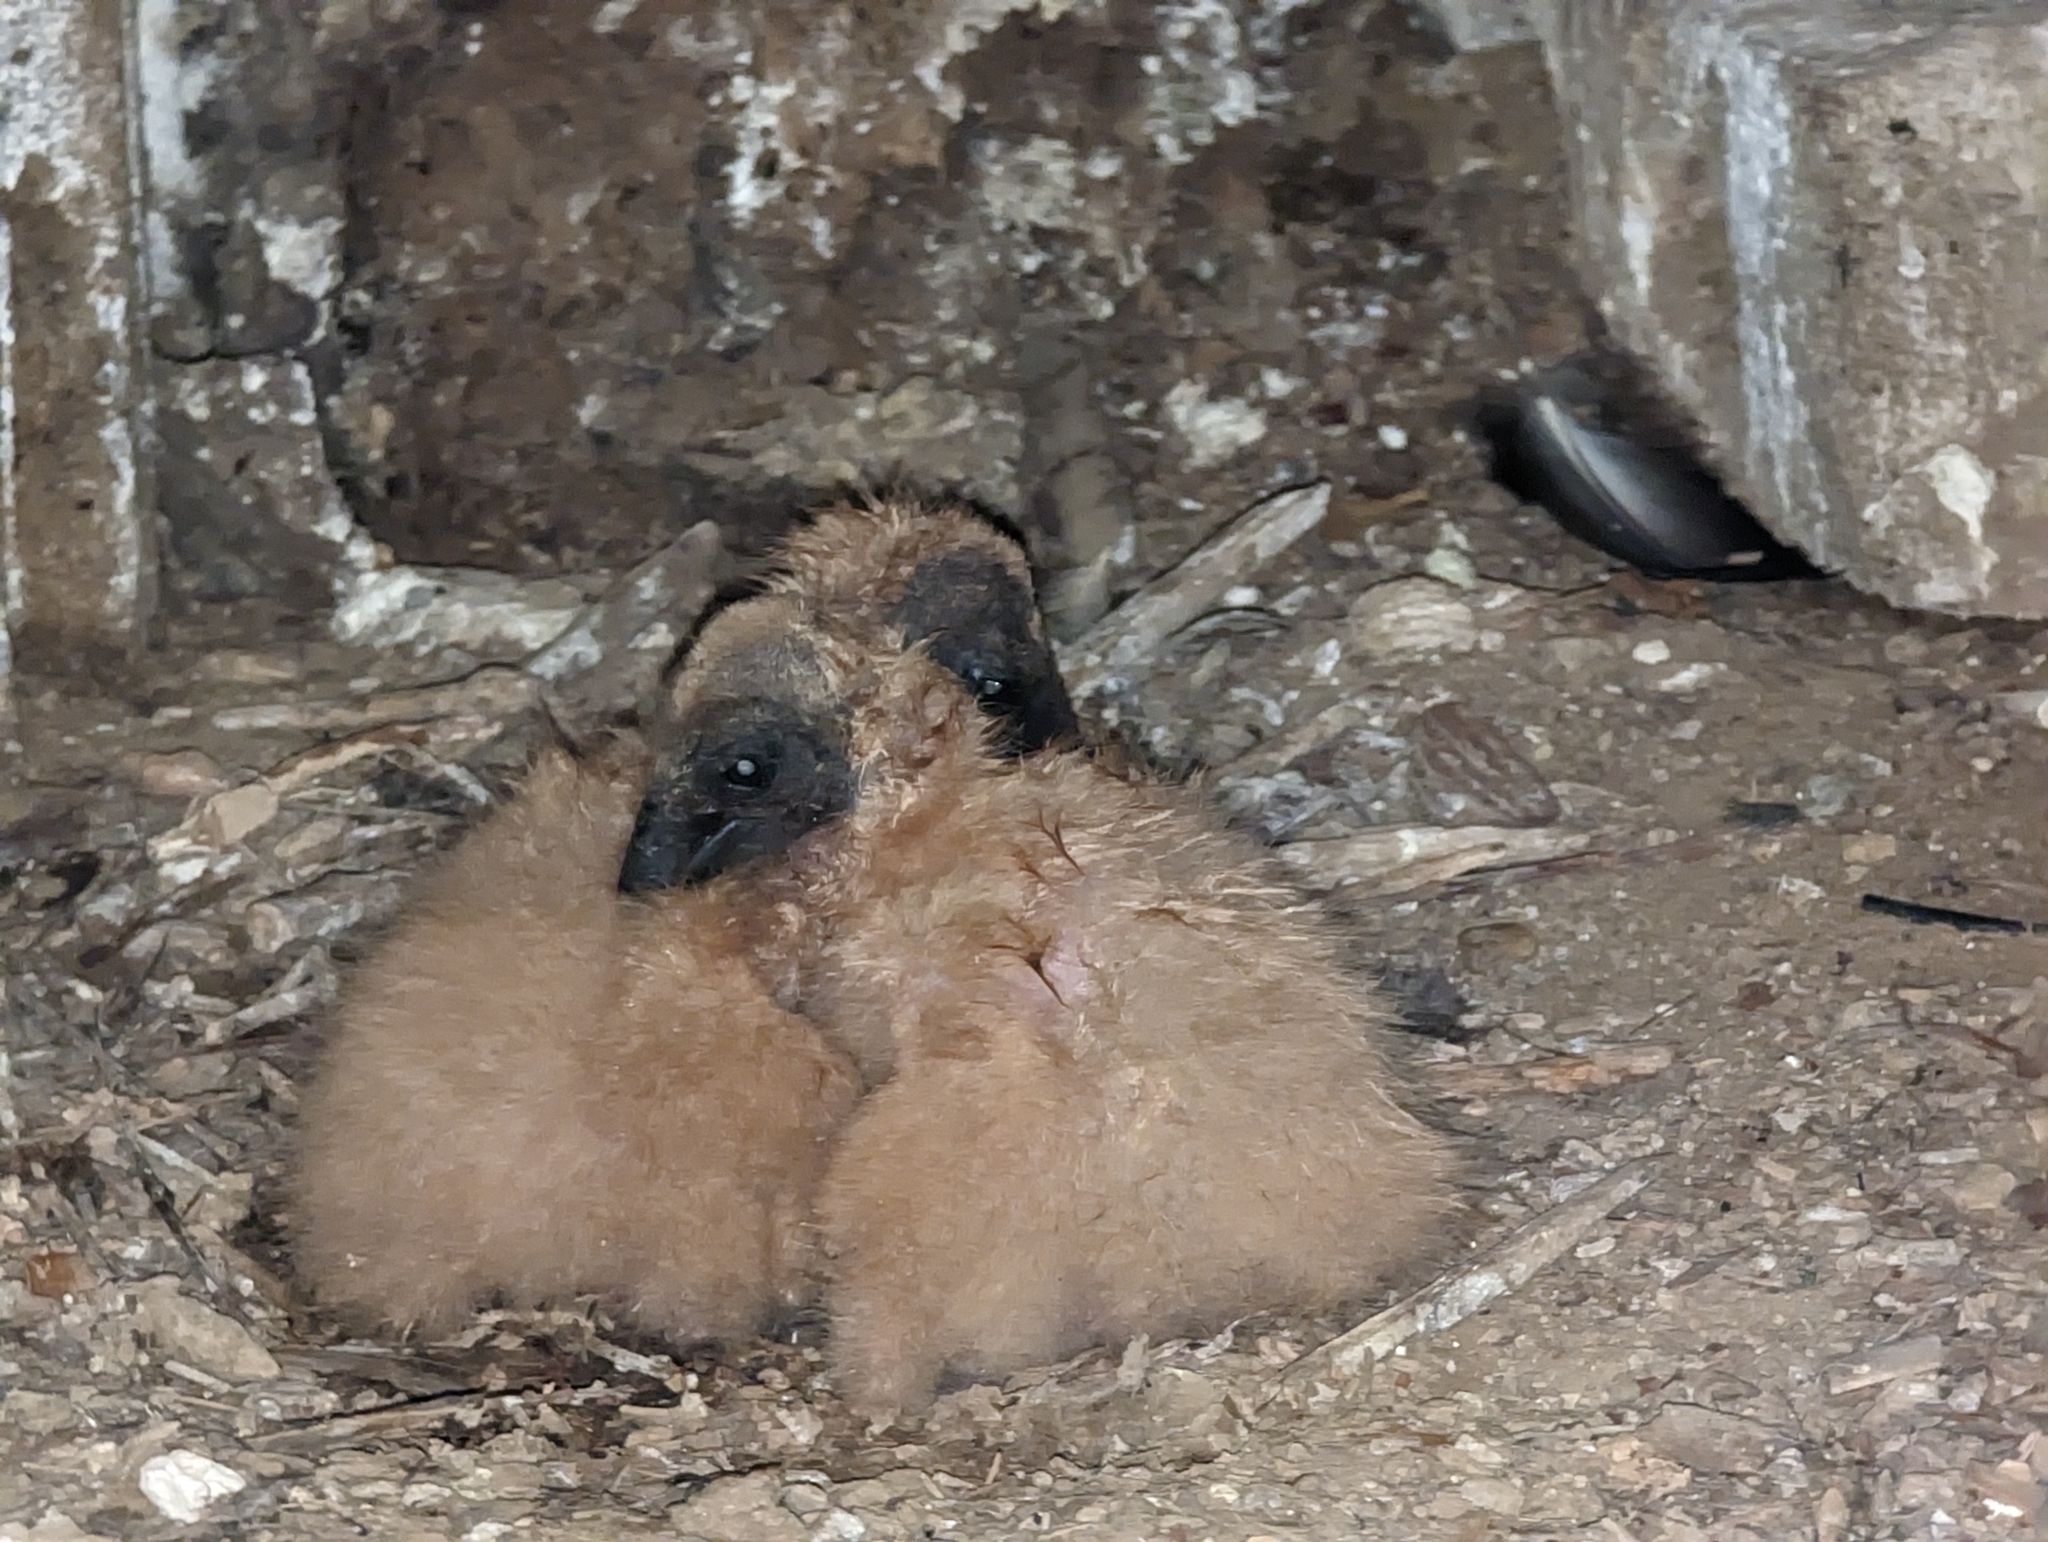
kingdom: Animalia
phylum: Chordata
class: Aves
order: Accipitriformes
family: Cathartidae
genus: Coragyps
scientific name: Coragyps atratus
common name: Black vulture
